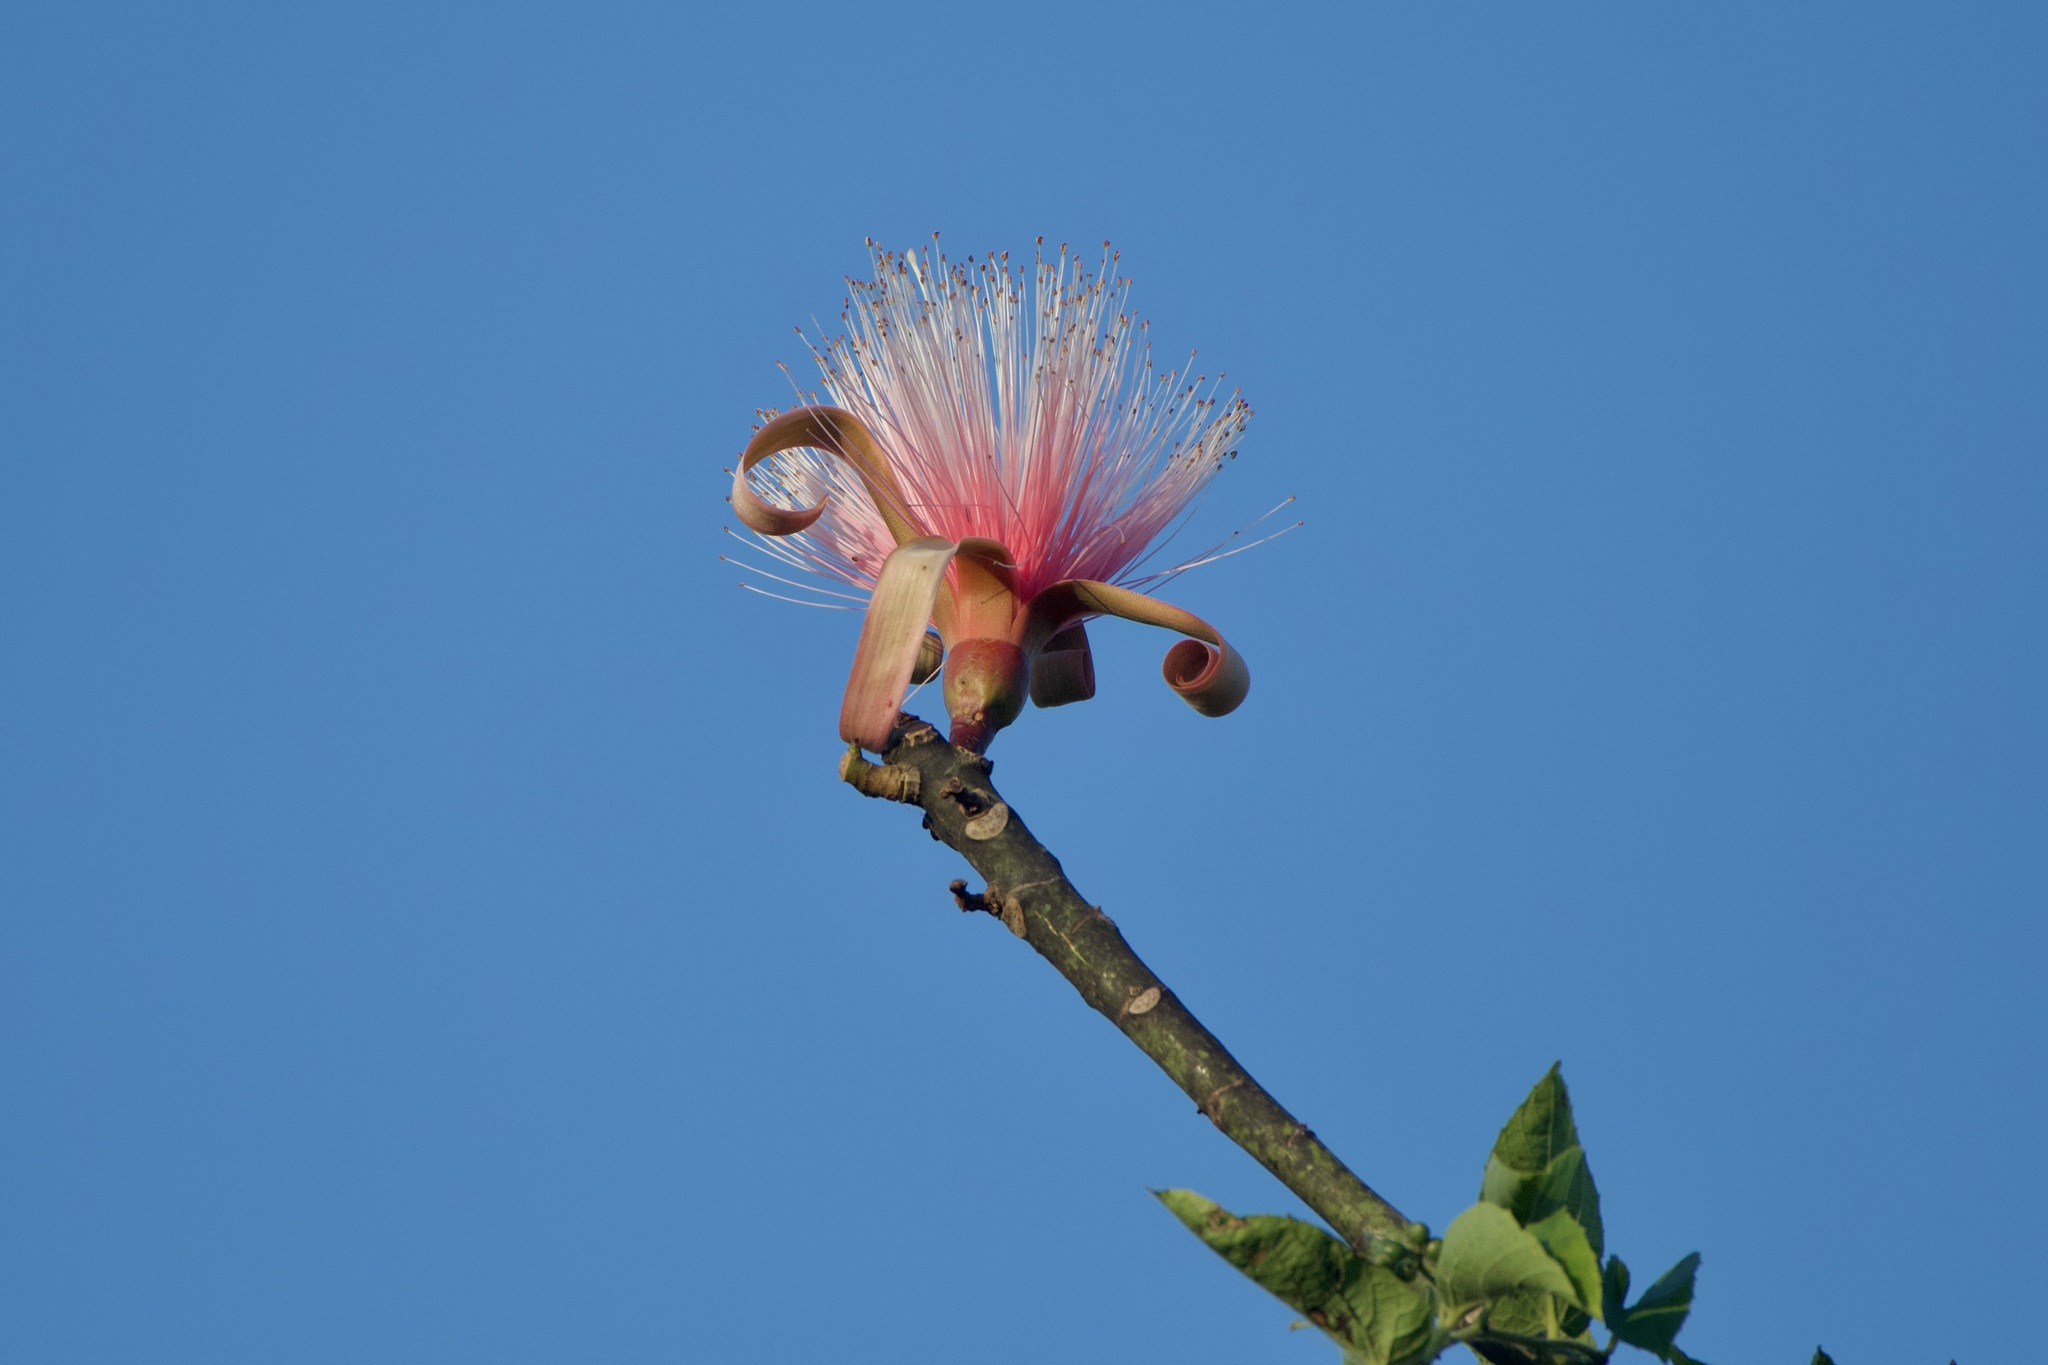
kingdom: Plantae
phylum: Tracheophyta
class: Magnoliopsida
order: Malvales
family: Malvaceae
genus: Pseudobombax
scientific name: Pseudobombax ellipticum
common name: Shaving-brush-tree
